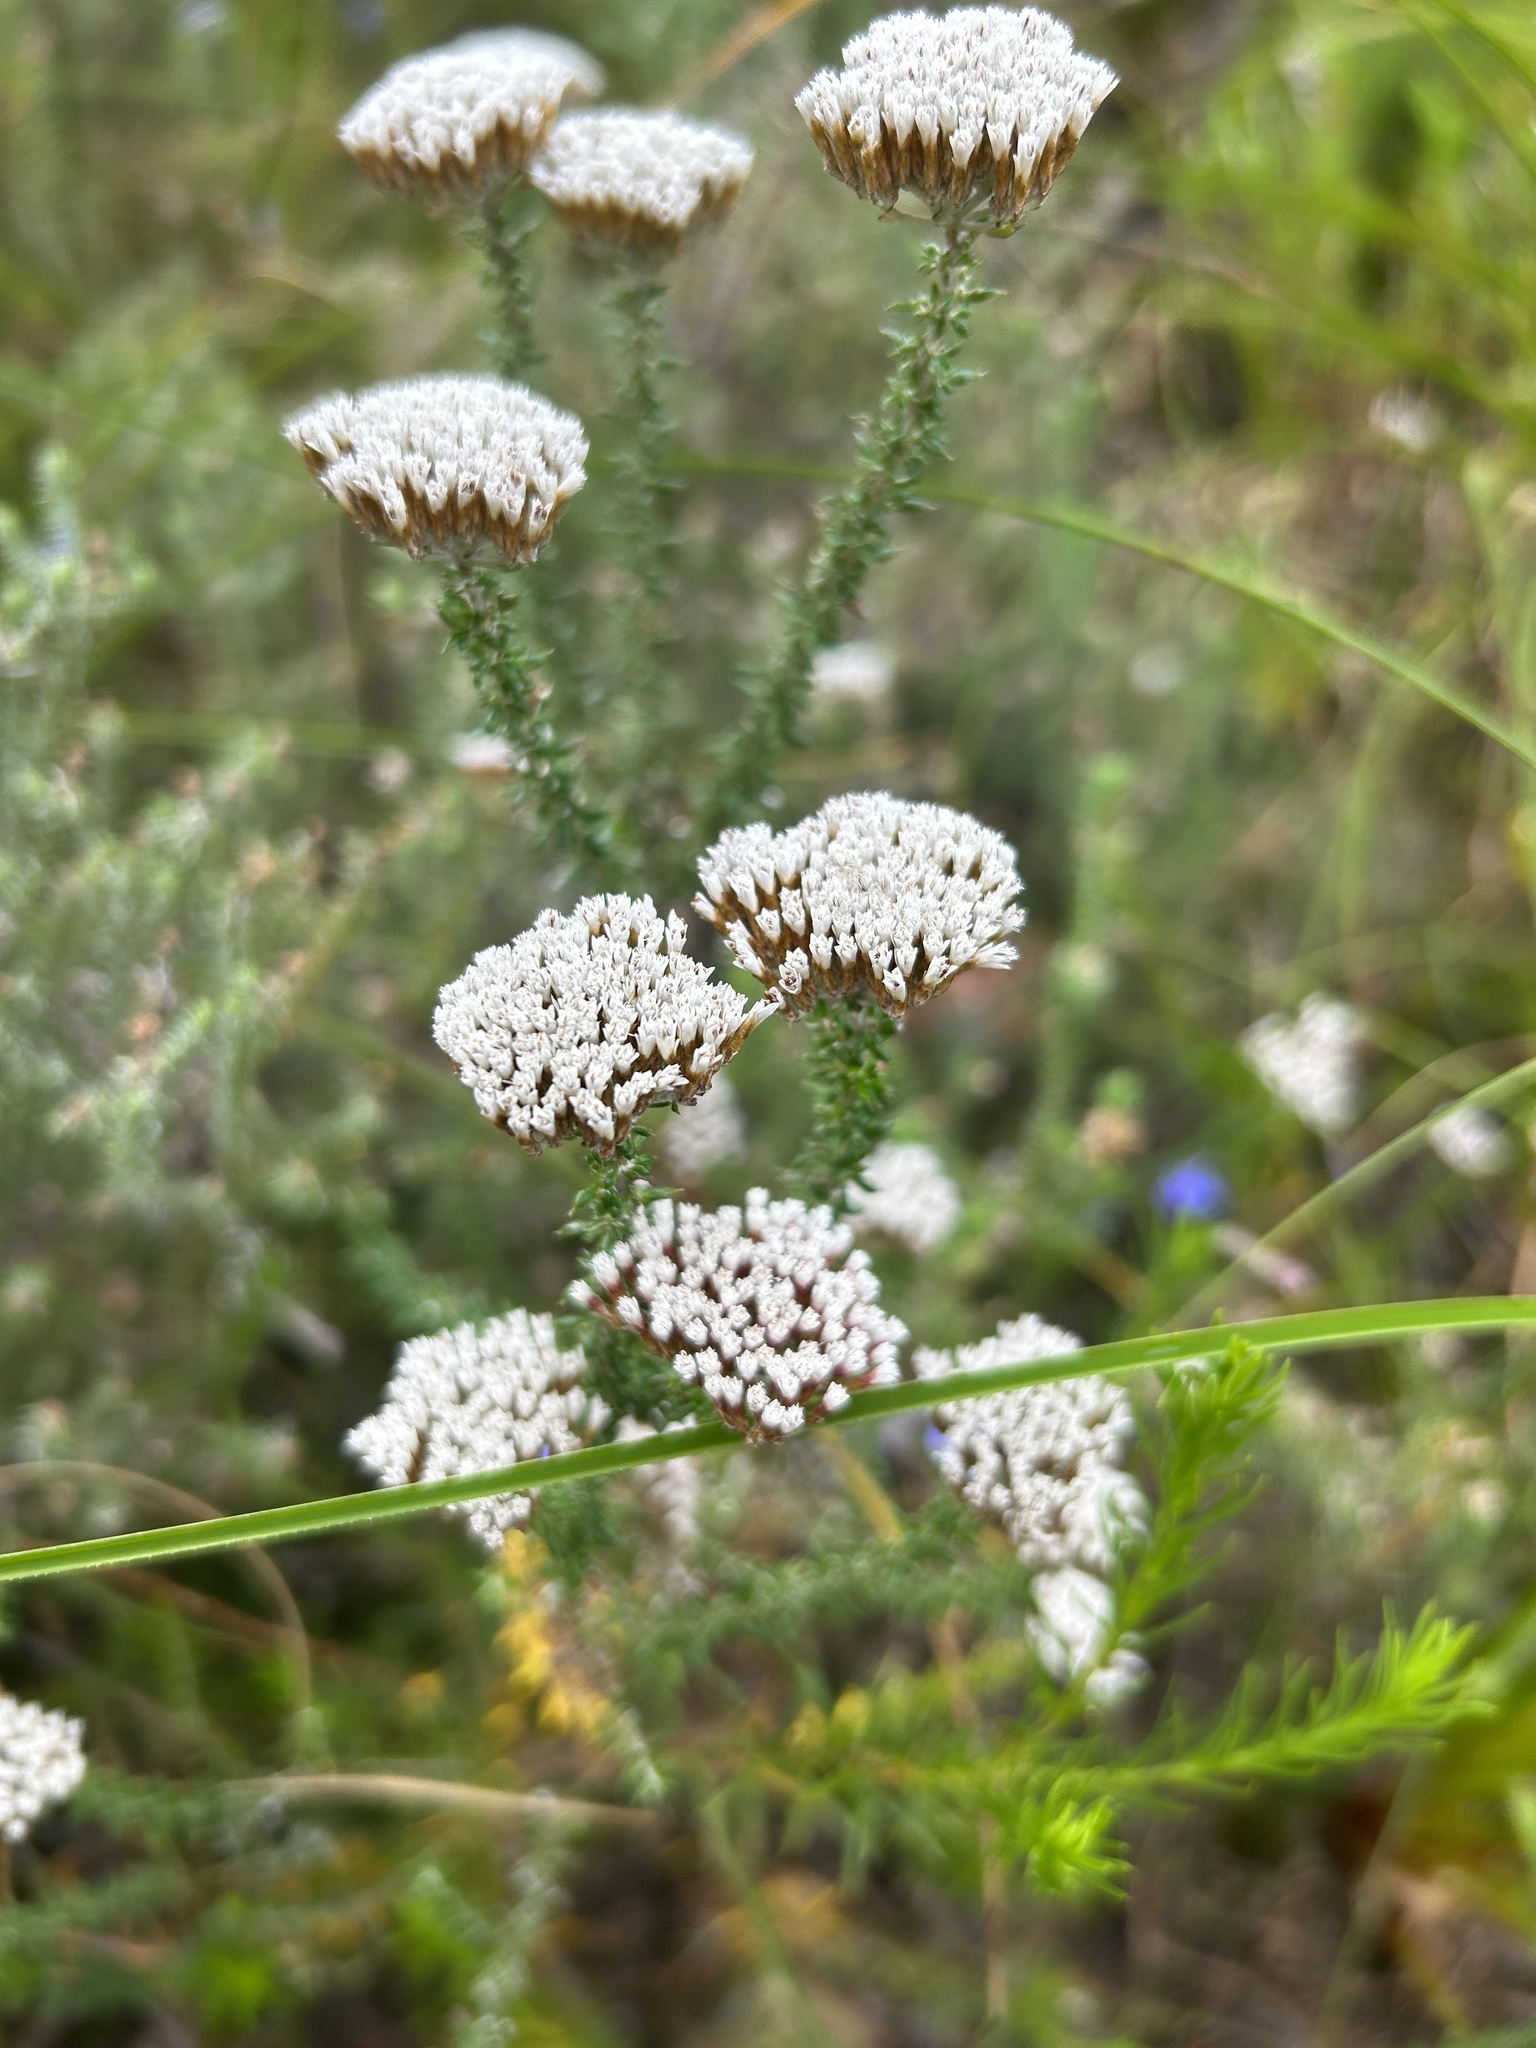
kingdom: Plantae
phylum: Tracheophyta
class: Magnoliopsida
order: Asterales
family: Asteraceae
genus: Metalasia
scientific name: Metalasia densa
